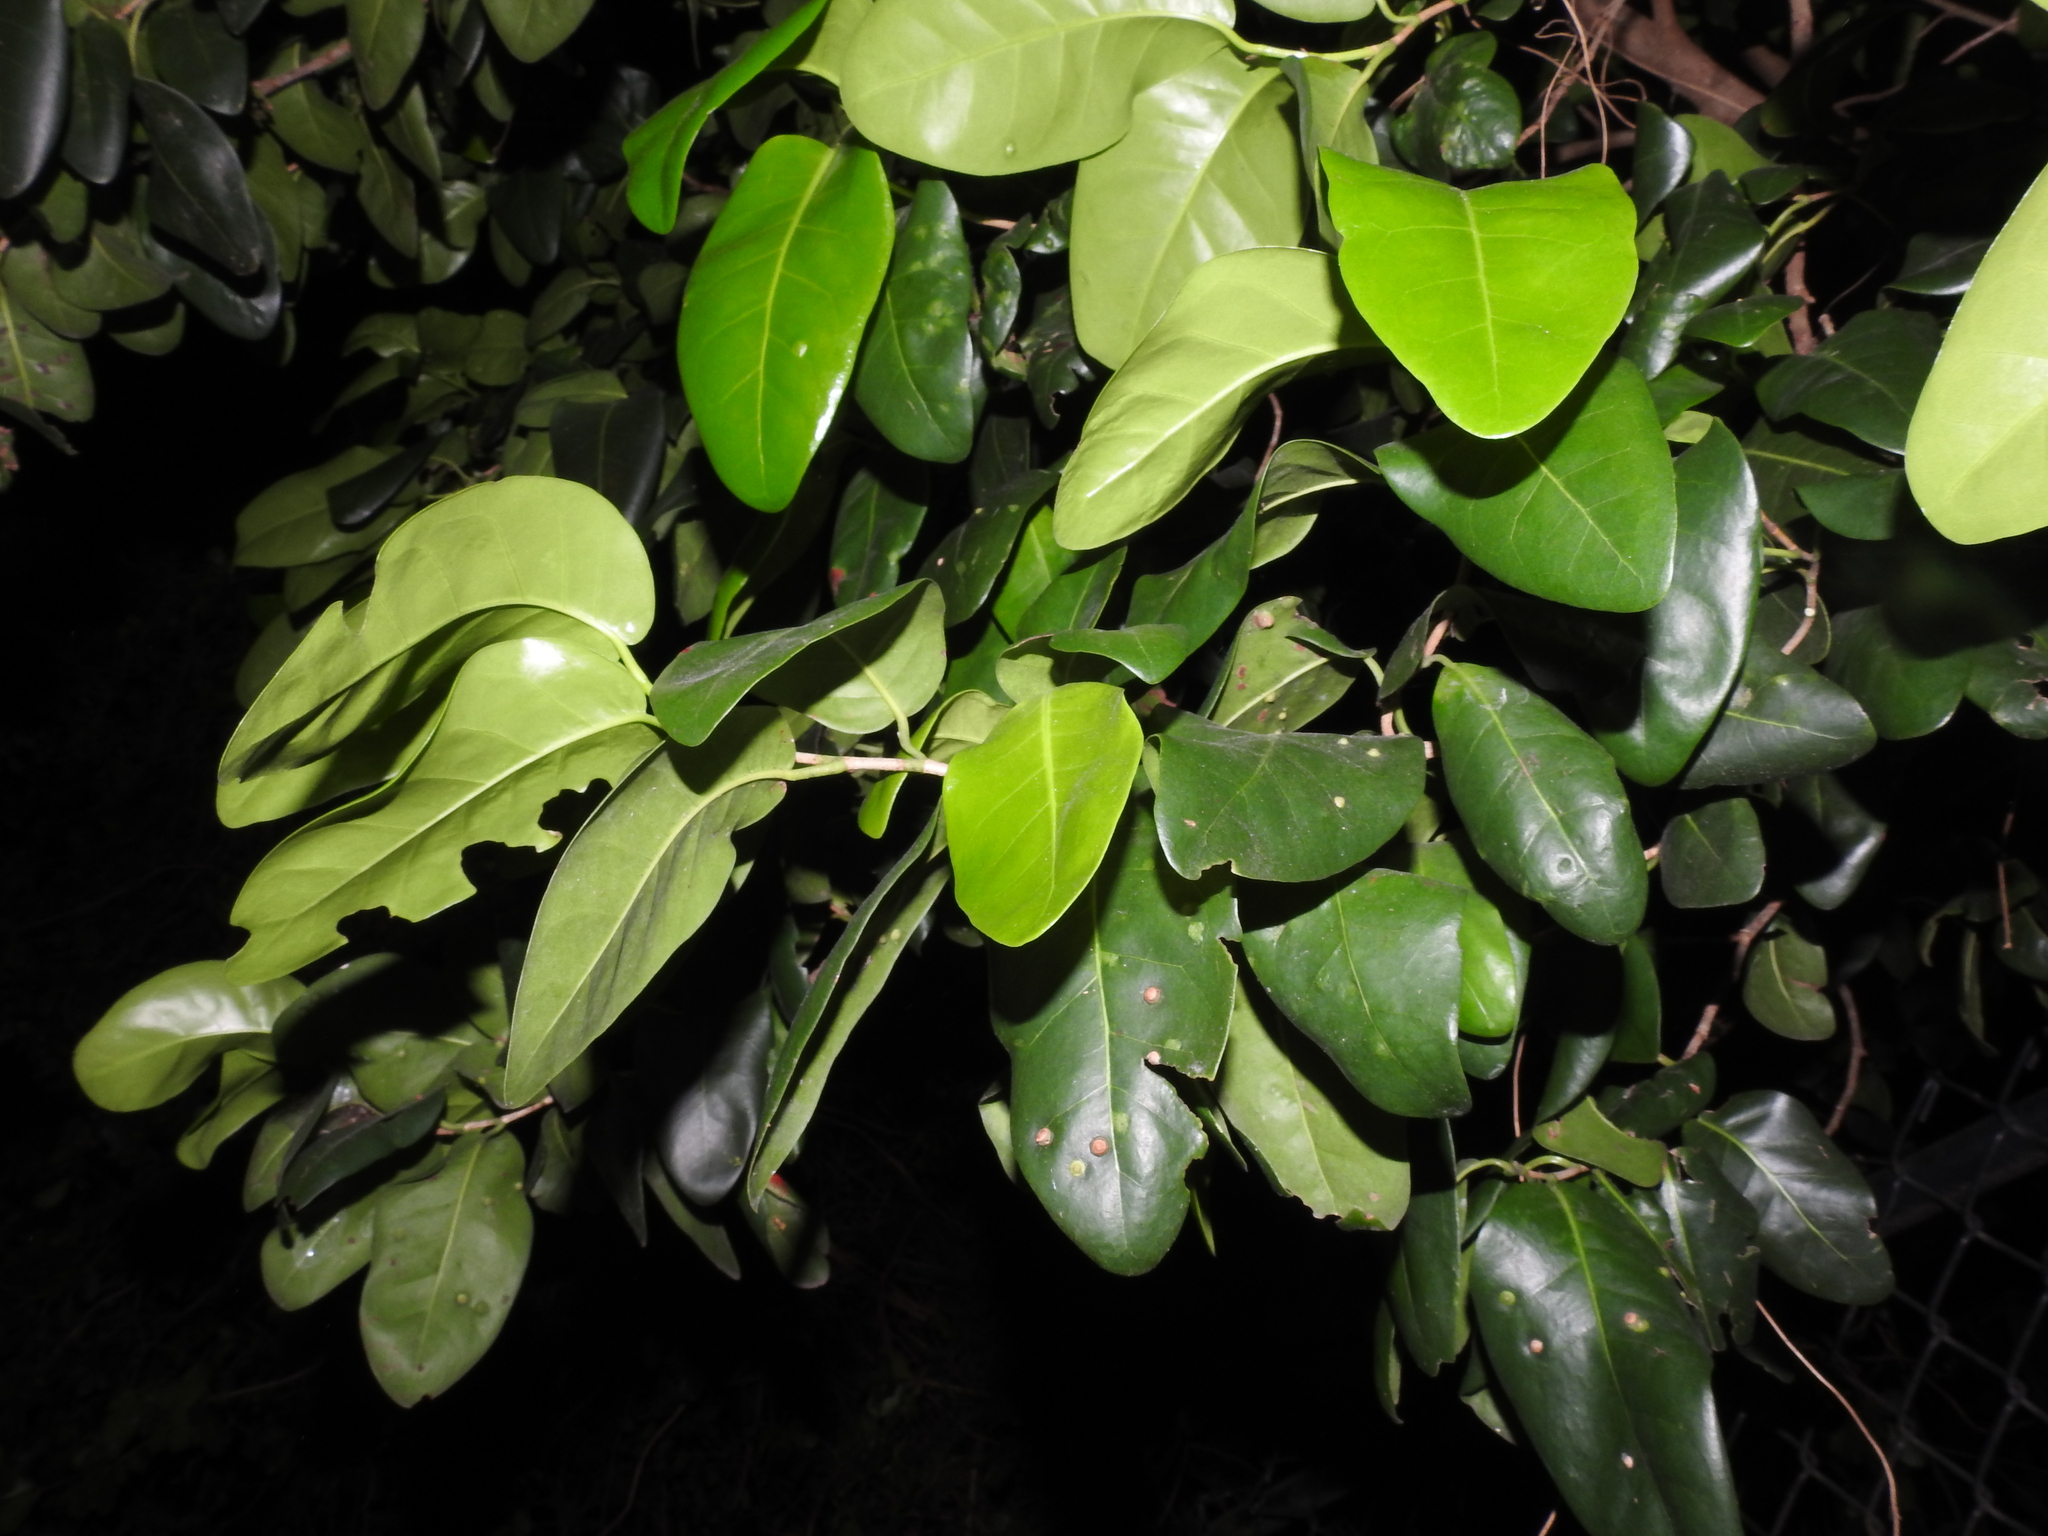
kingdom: Plantae
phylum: Tracheophyta
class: Magnoliopsida
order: Caryophyllales
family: Polygonaceae
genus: Coccoloba
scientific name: Coccoloba diversifolia
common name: Pigeon-plum
